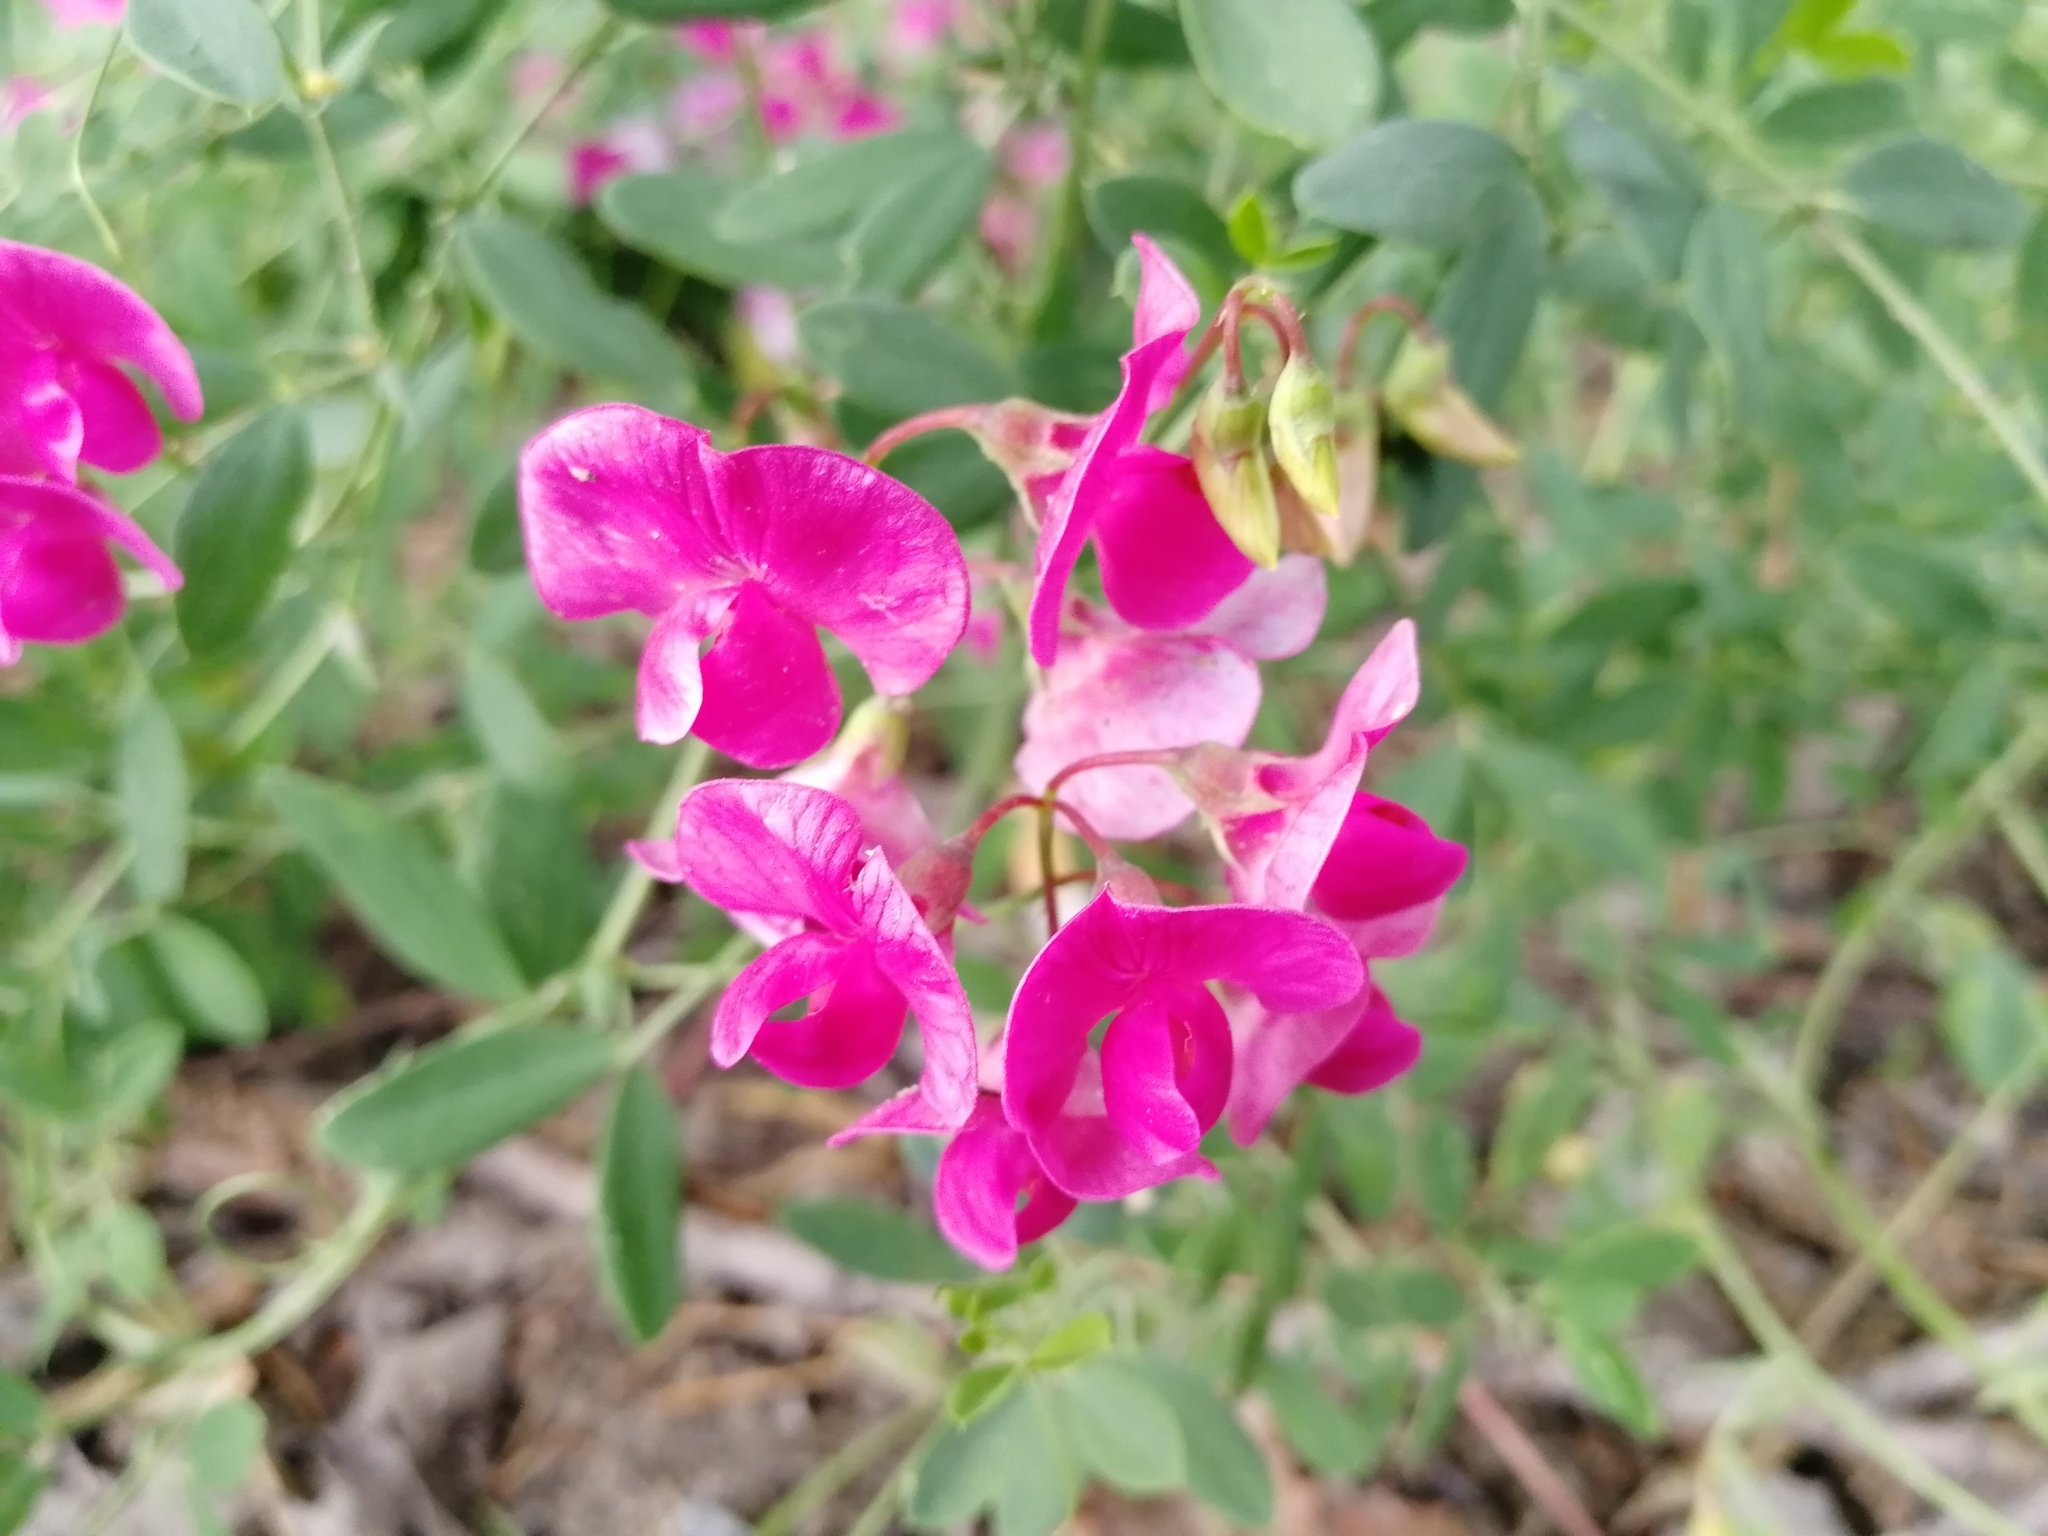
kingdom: Plantae
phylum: Tracheophyta
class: Magnoliopsida
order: Fabales
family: Fabaceae
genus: Lathyrus
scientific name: Lathyrus tuberosus
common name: Tuberous pea
